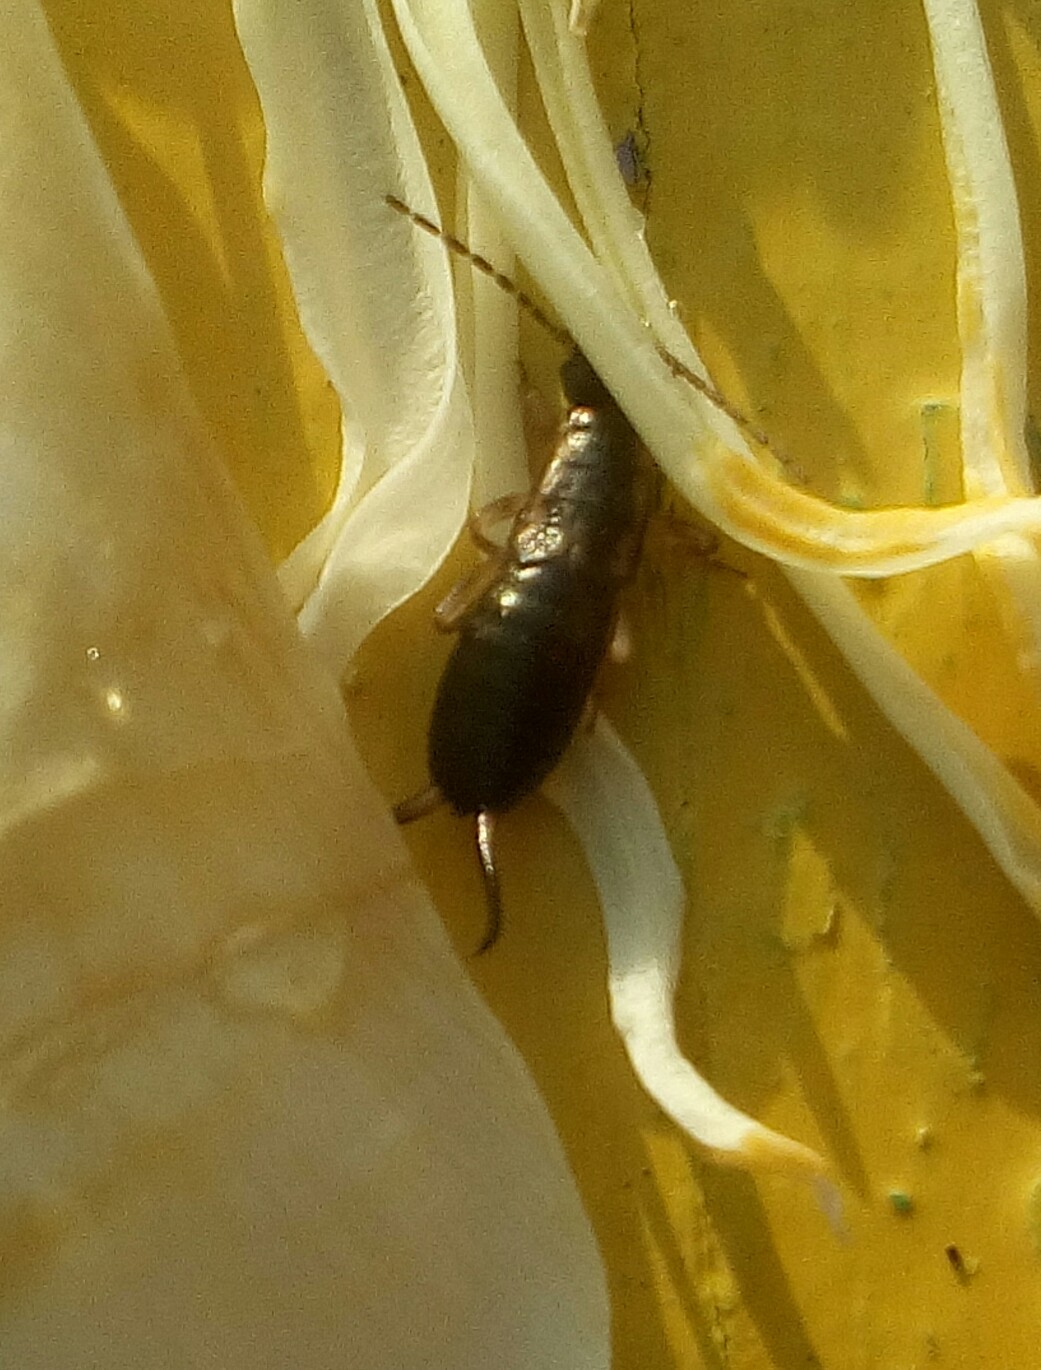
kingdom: Animalia
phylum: Arthropoda
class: Insecta
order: Dermaptera
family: Forficulidae
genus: Forficula
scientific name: Forficula
